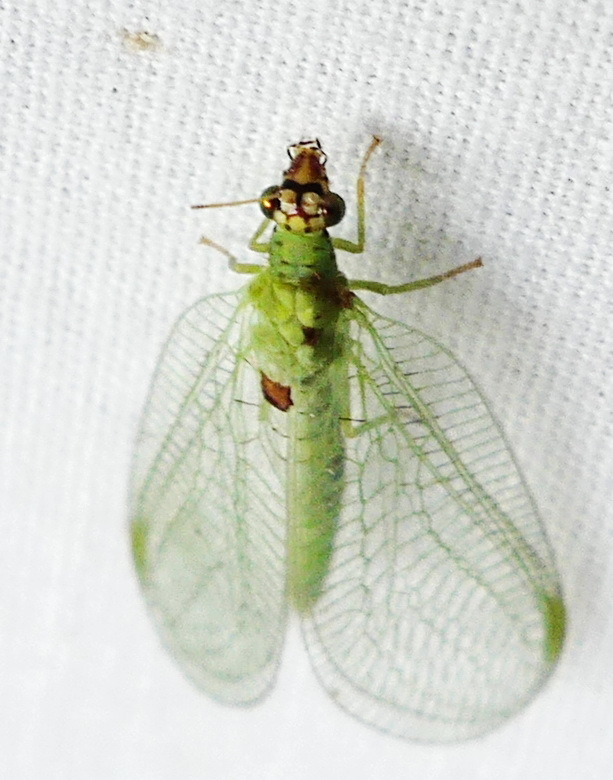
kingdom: Animalia
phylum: Arthropoda
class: Insecta
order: Neuroptera
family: Chrysopidae
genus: Chrysopa
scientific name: Chrysopa oculata
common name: Golden-eyed lacewing
